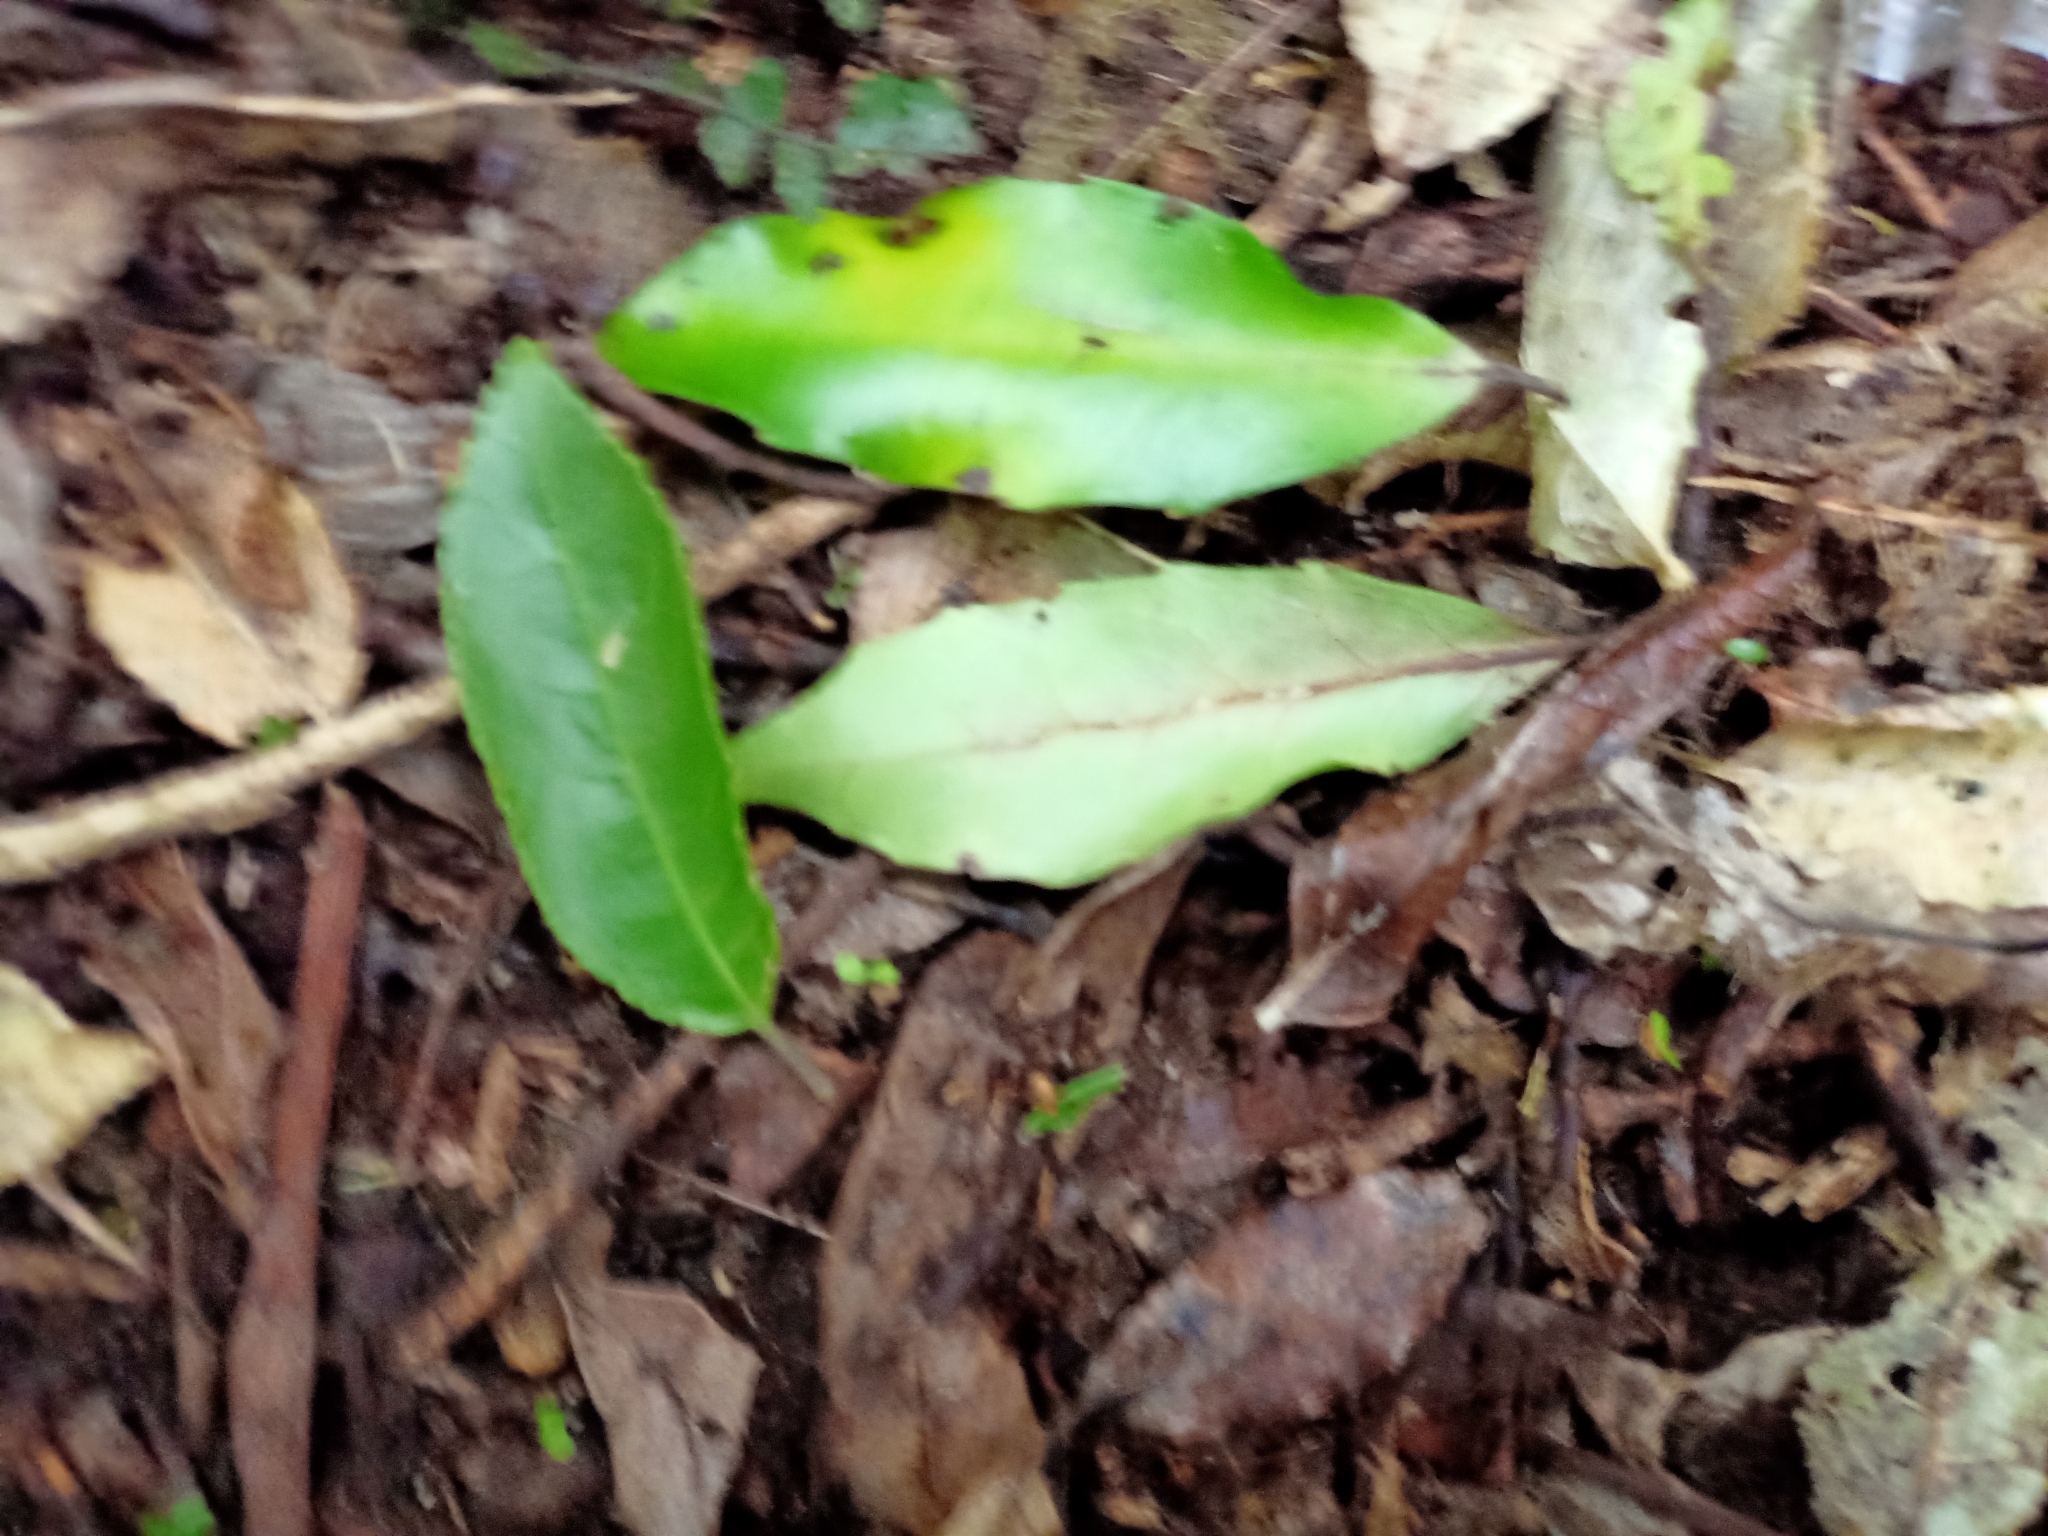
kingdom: Plantae
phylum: Tracheophyta
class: Magnoliopsida
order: Laurales
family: Monimiaceae
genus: Hedycarya
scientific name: Hedycarya arborea
